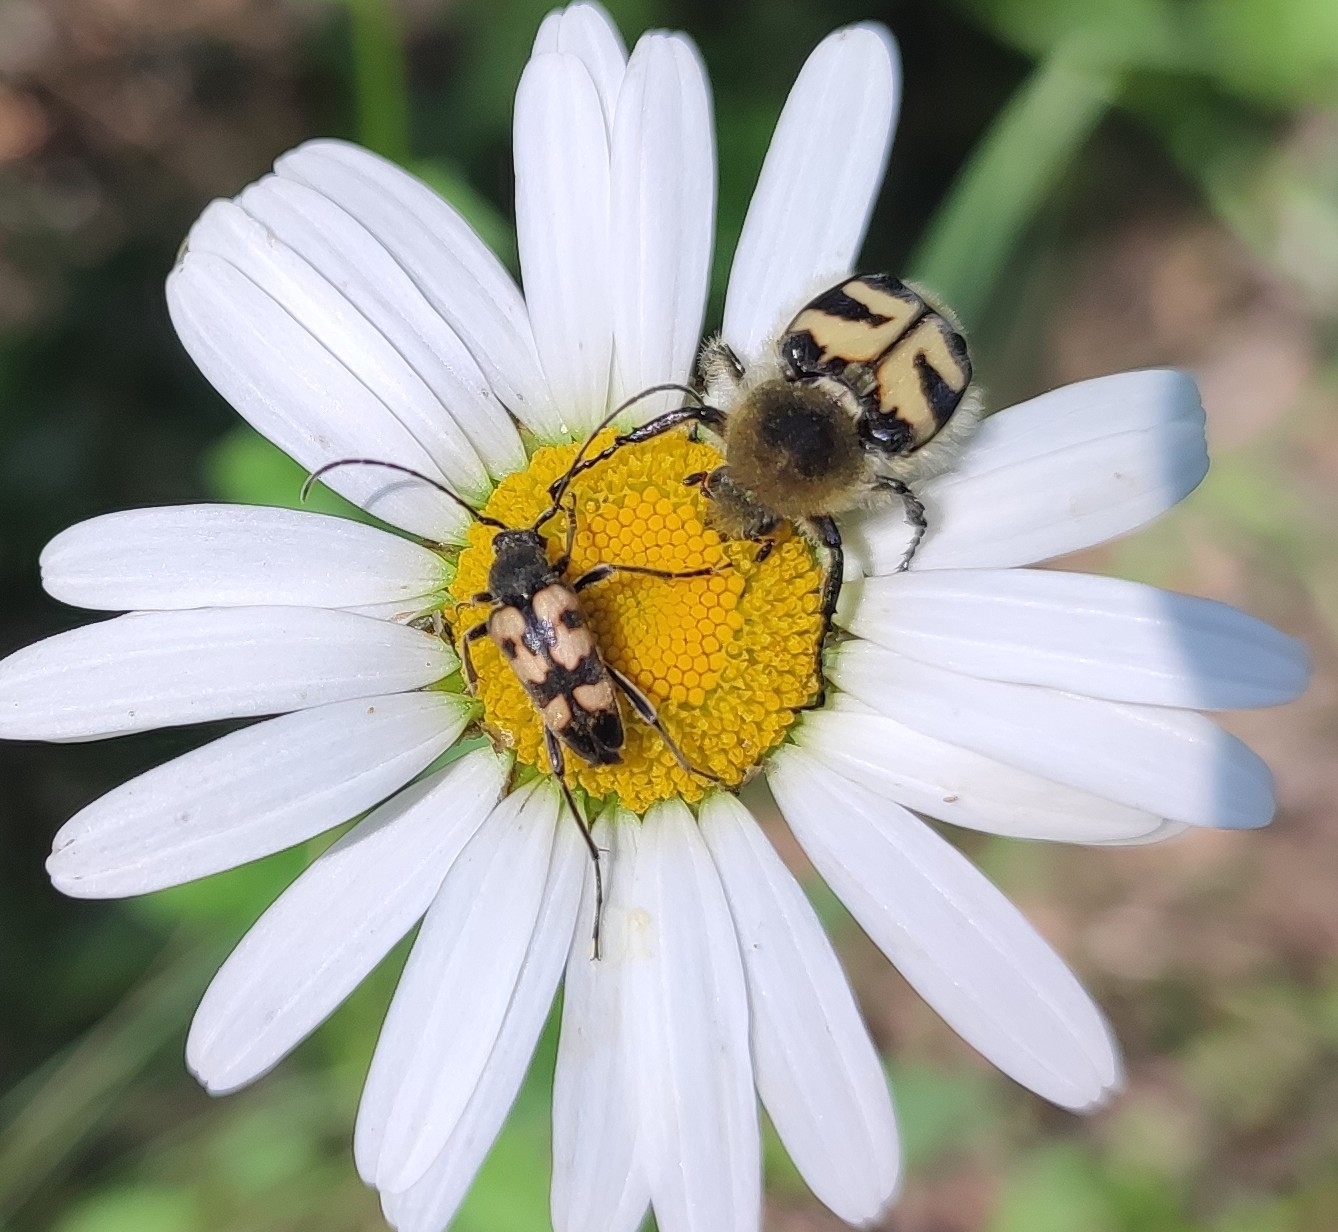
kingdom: Animalia
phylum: Arthropoda
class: Insecta
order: Coleoptera
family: Cerambycidae
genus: Pachytodes
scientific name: Pachytodes
